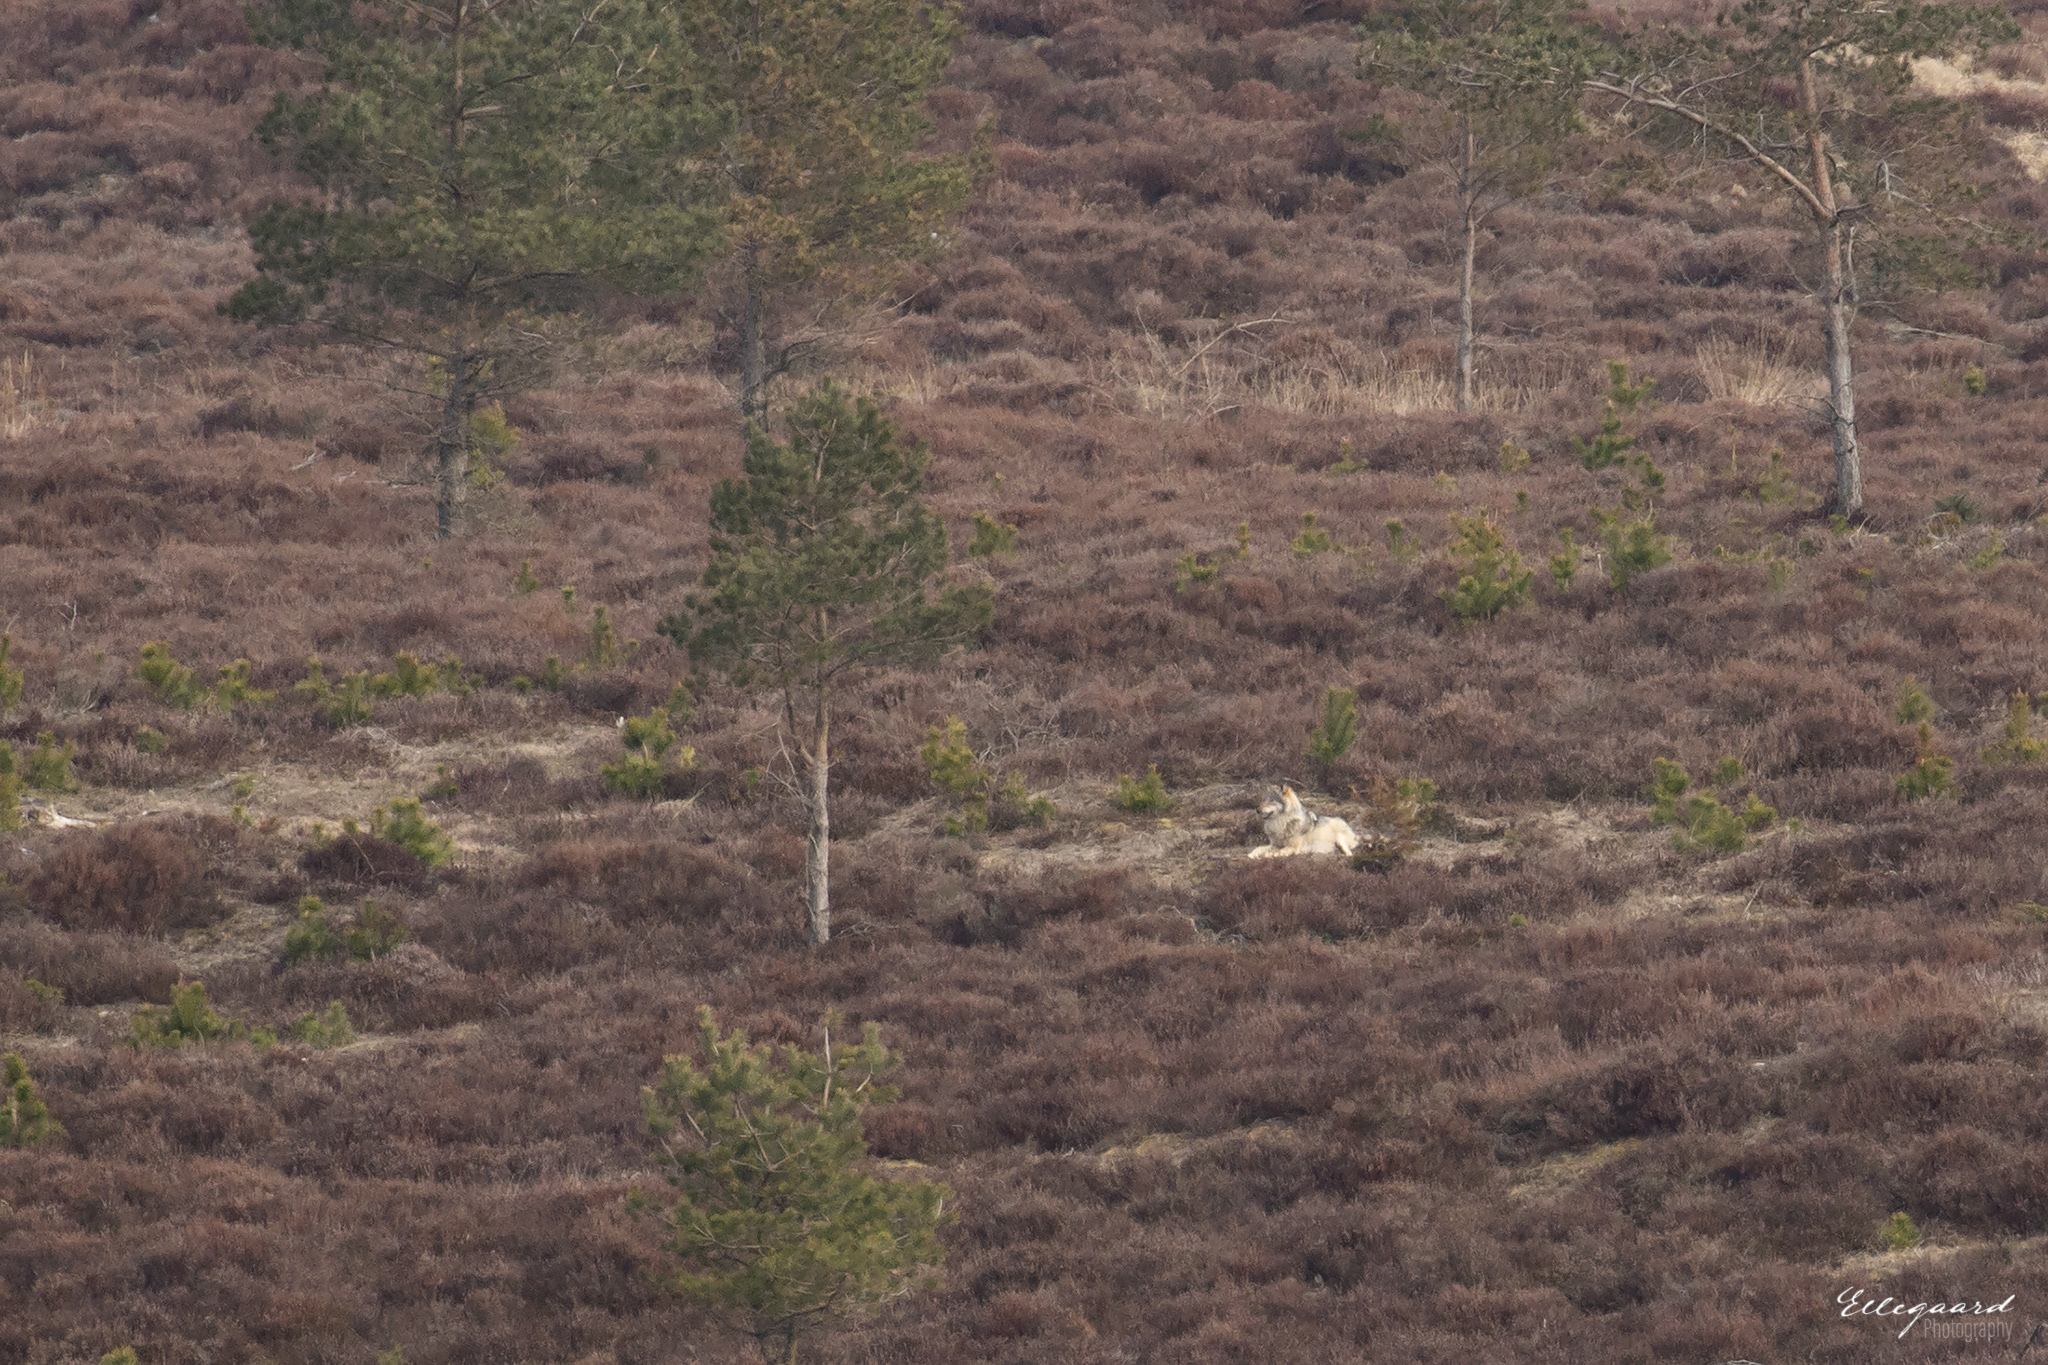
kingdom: Animalia
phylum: Chordata
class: Mammalia
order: Carnivora
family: Canidae
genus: Canis
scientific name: Canis lupus
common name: Gray wolf
